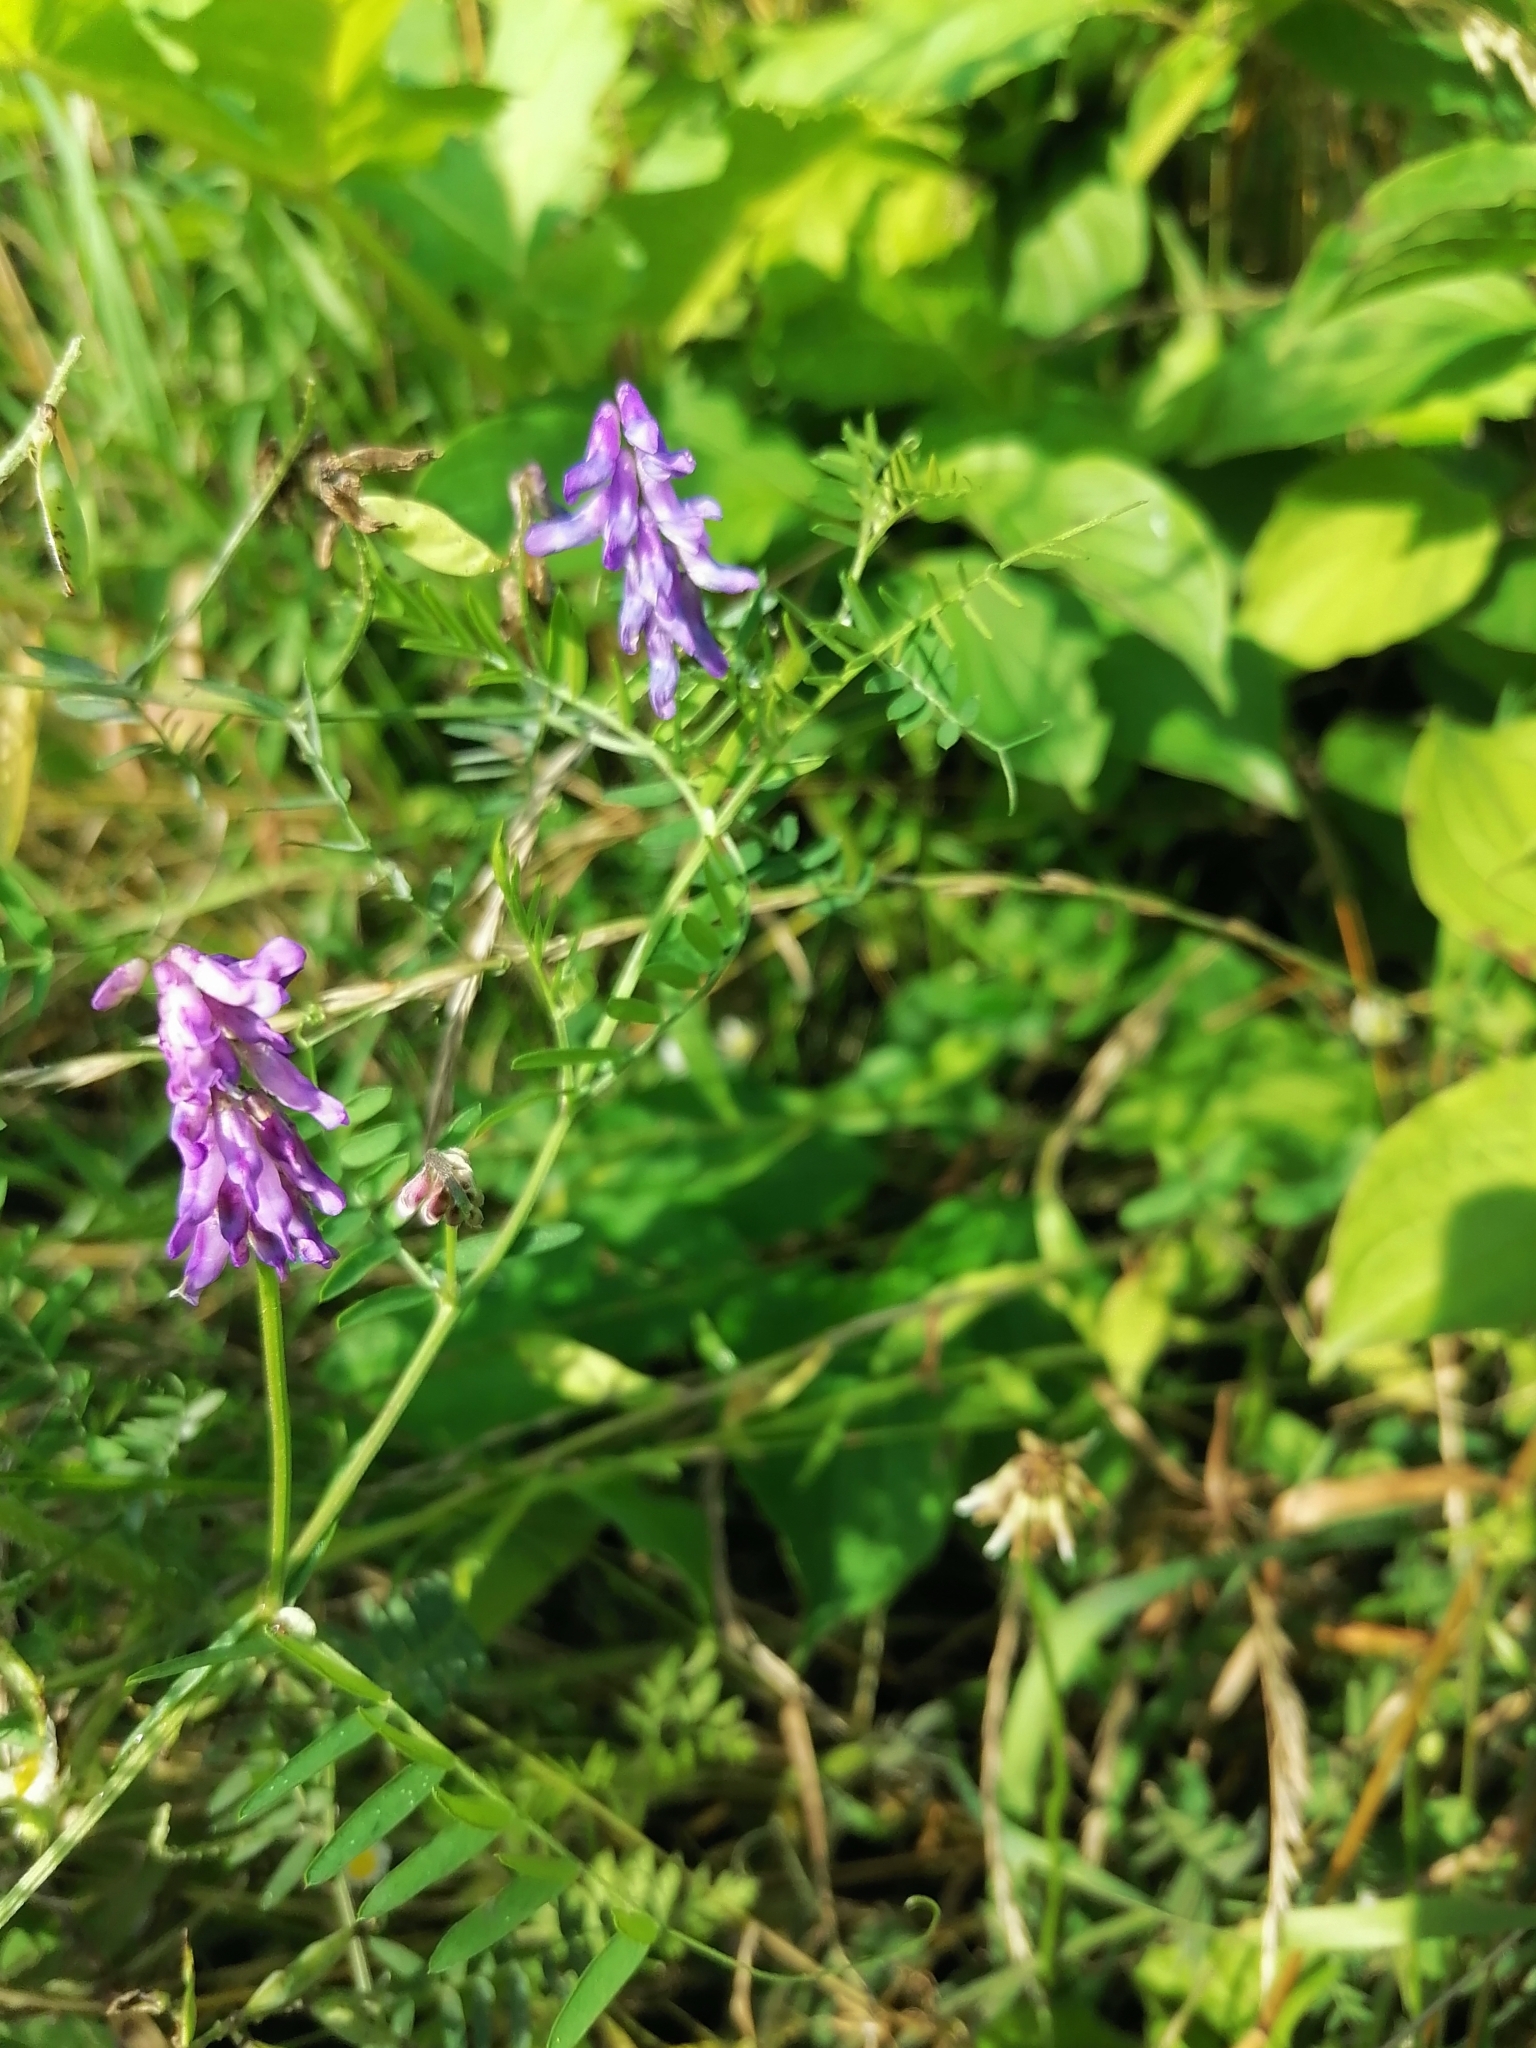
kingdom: Plantae
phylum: Tracheophyta
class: Magnoliopsida
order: Fabales
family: Fabaceae
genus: Vicia
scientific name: Vicia cracca
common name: Bird vetch
